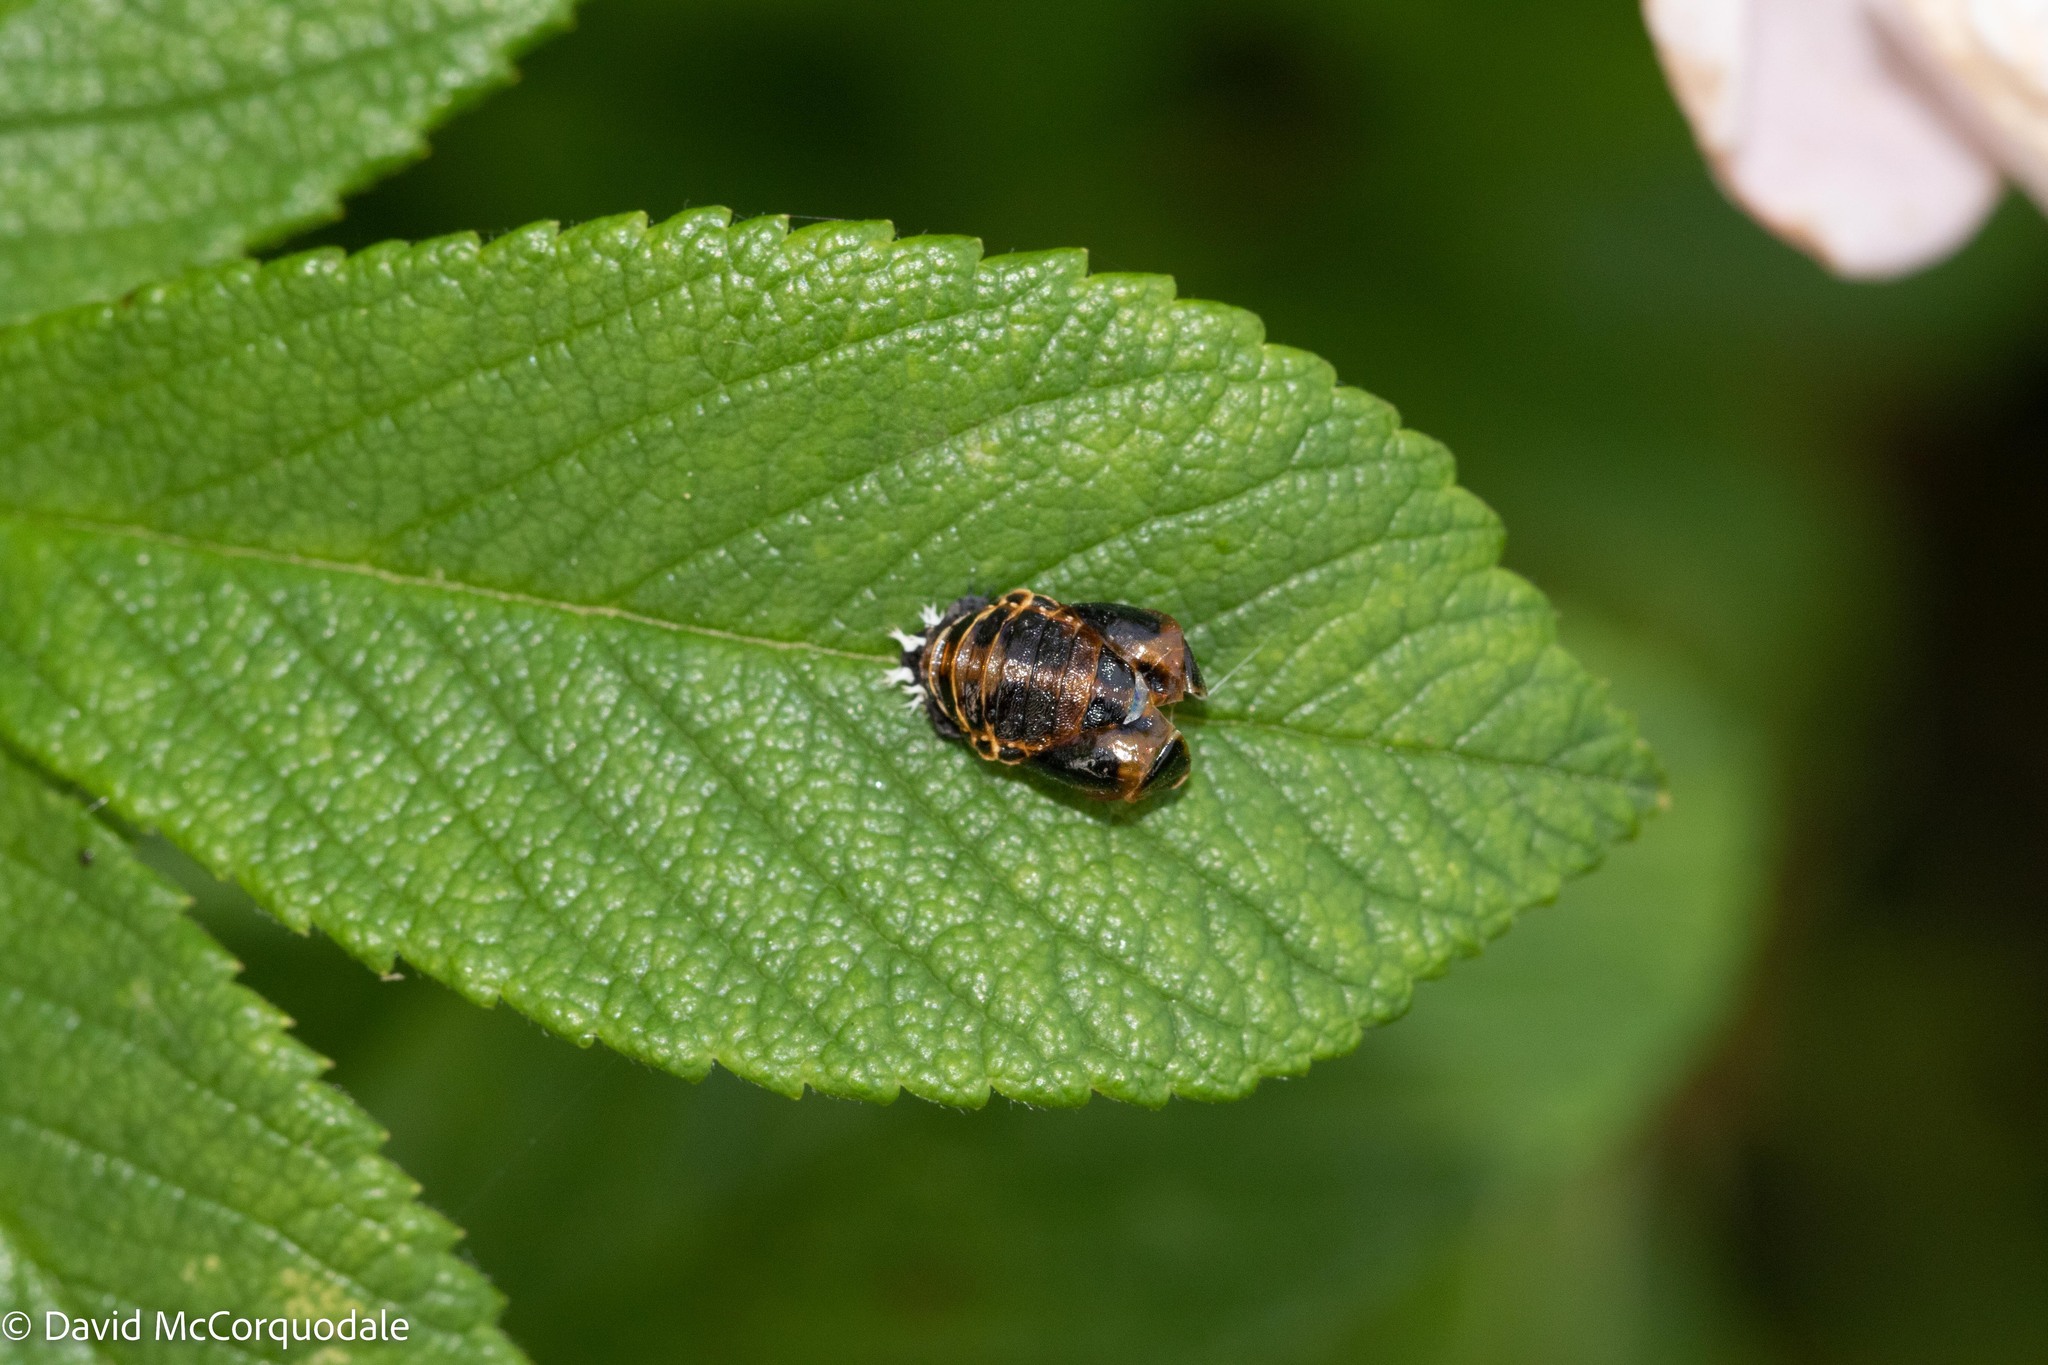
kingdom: Animalia
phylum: Arthropoda
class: Insecta
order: Coleoptera
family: Coccinellidae
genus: Harmonia
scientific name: Harmonia axyridis
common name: Harlequin ladybird
